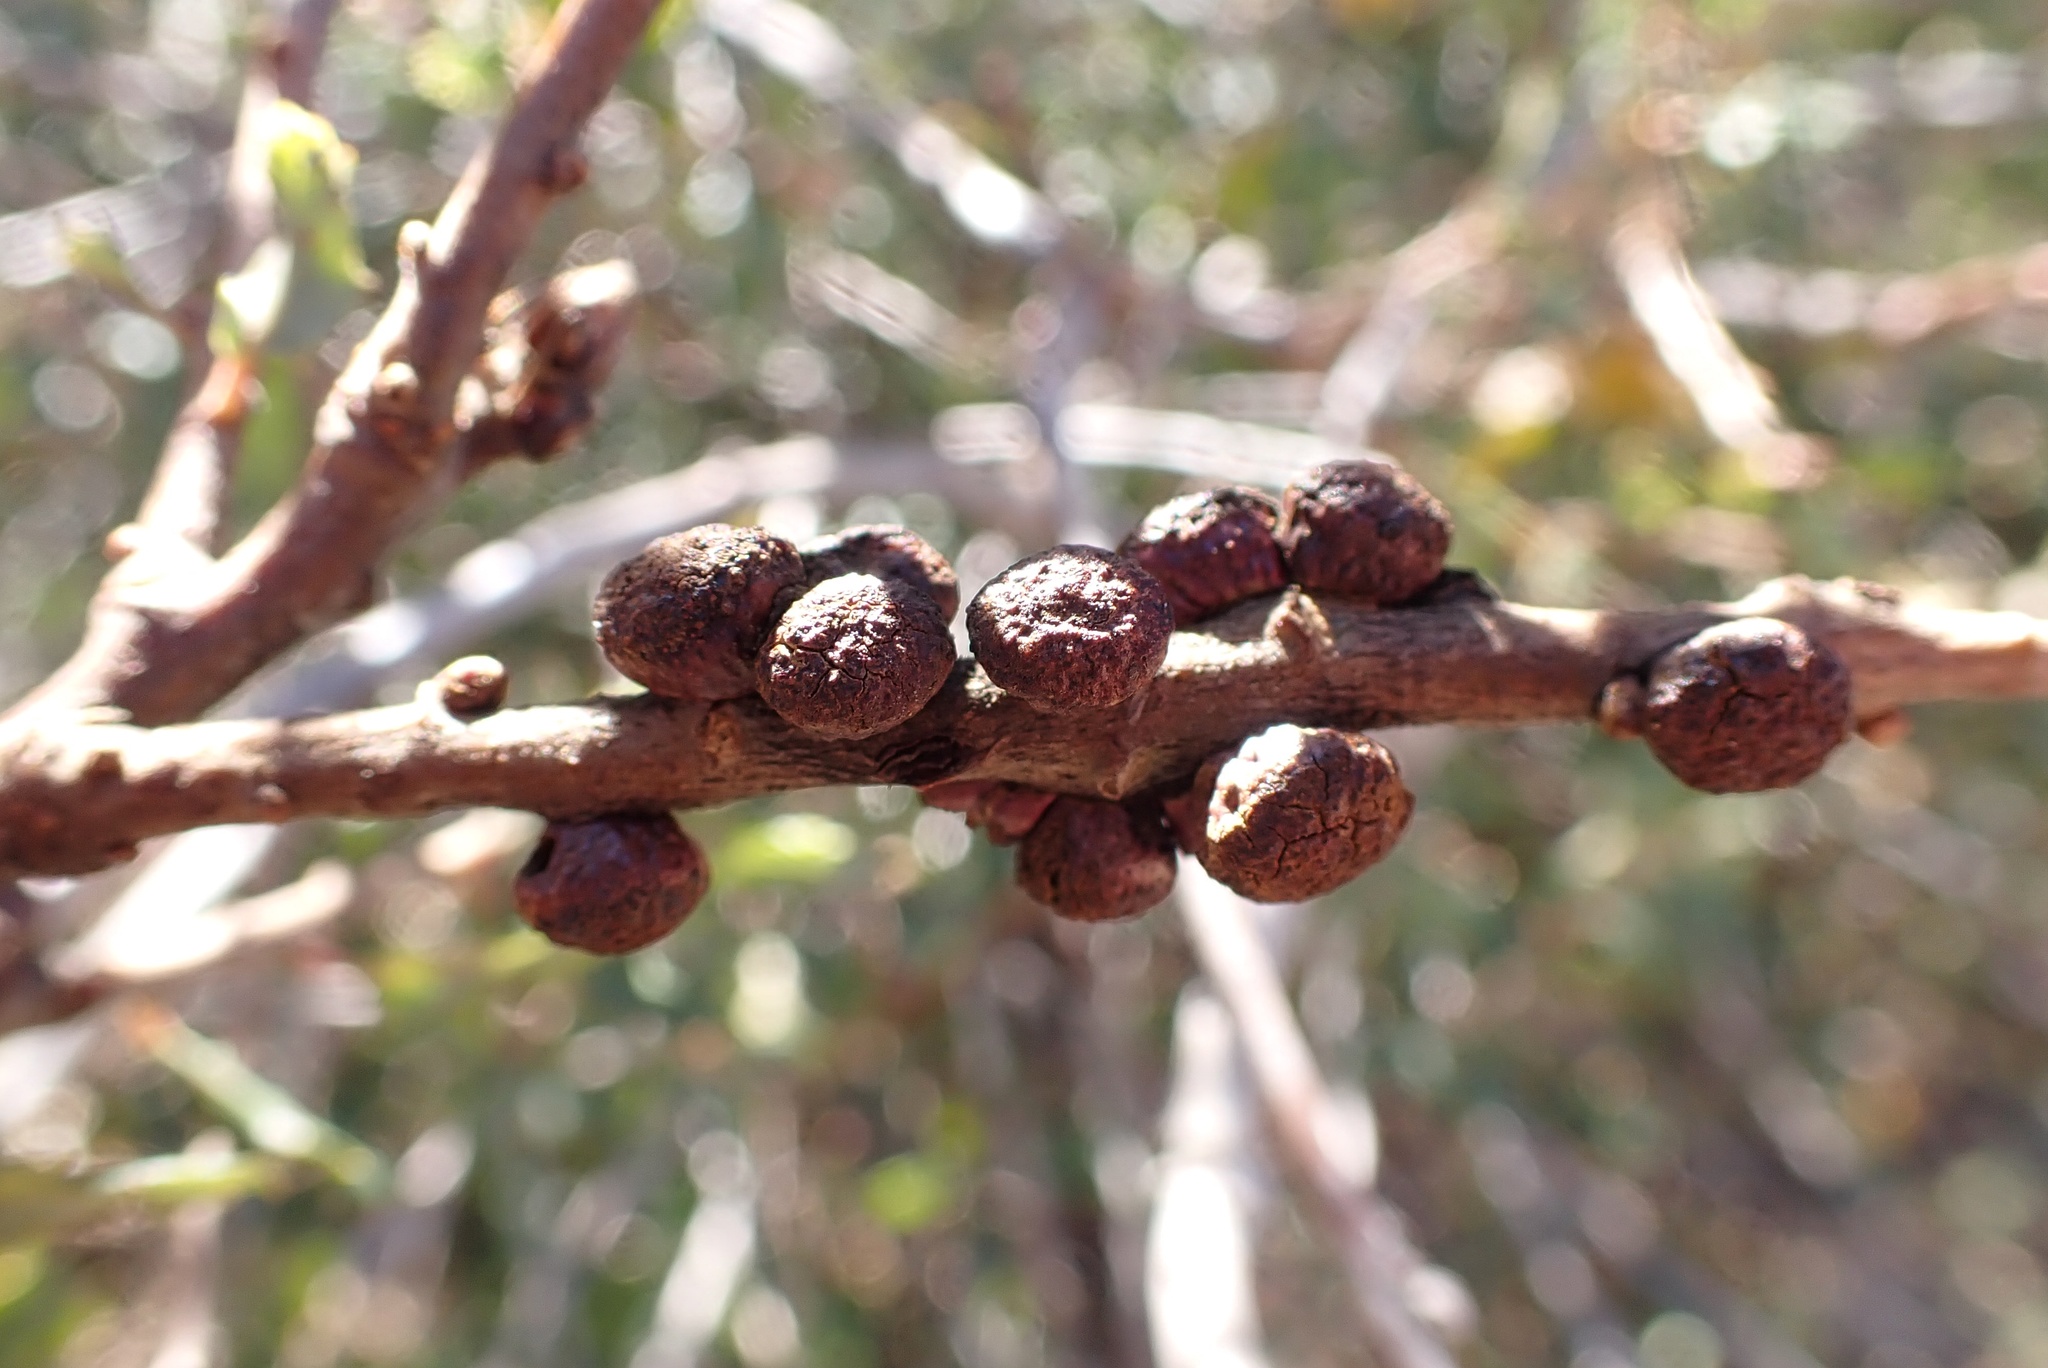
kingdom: Animalia
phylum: Arthropoda
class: Insecta
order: Hymenoptera
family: Cynipidae
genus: Disholcaspis
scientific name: Disholcaspis
